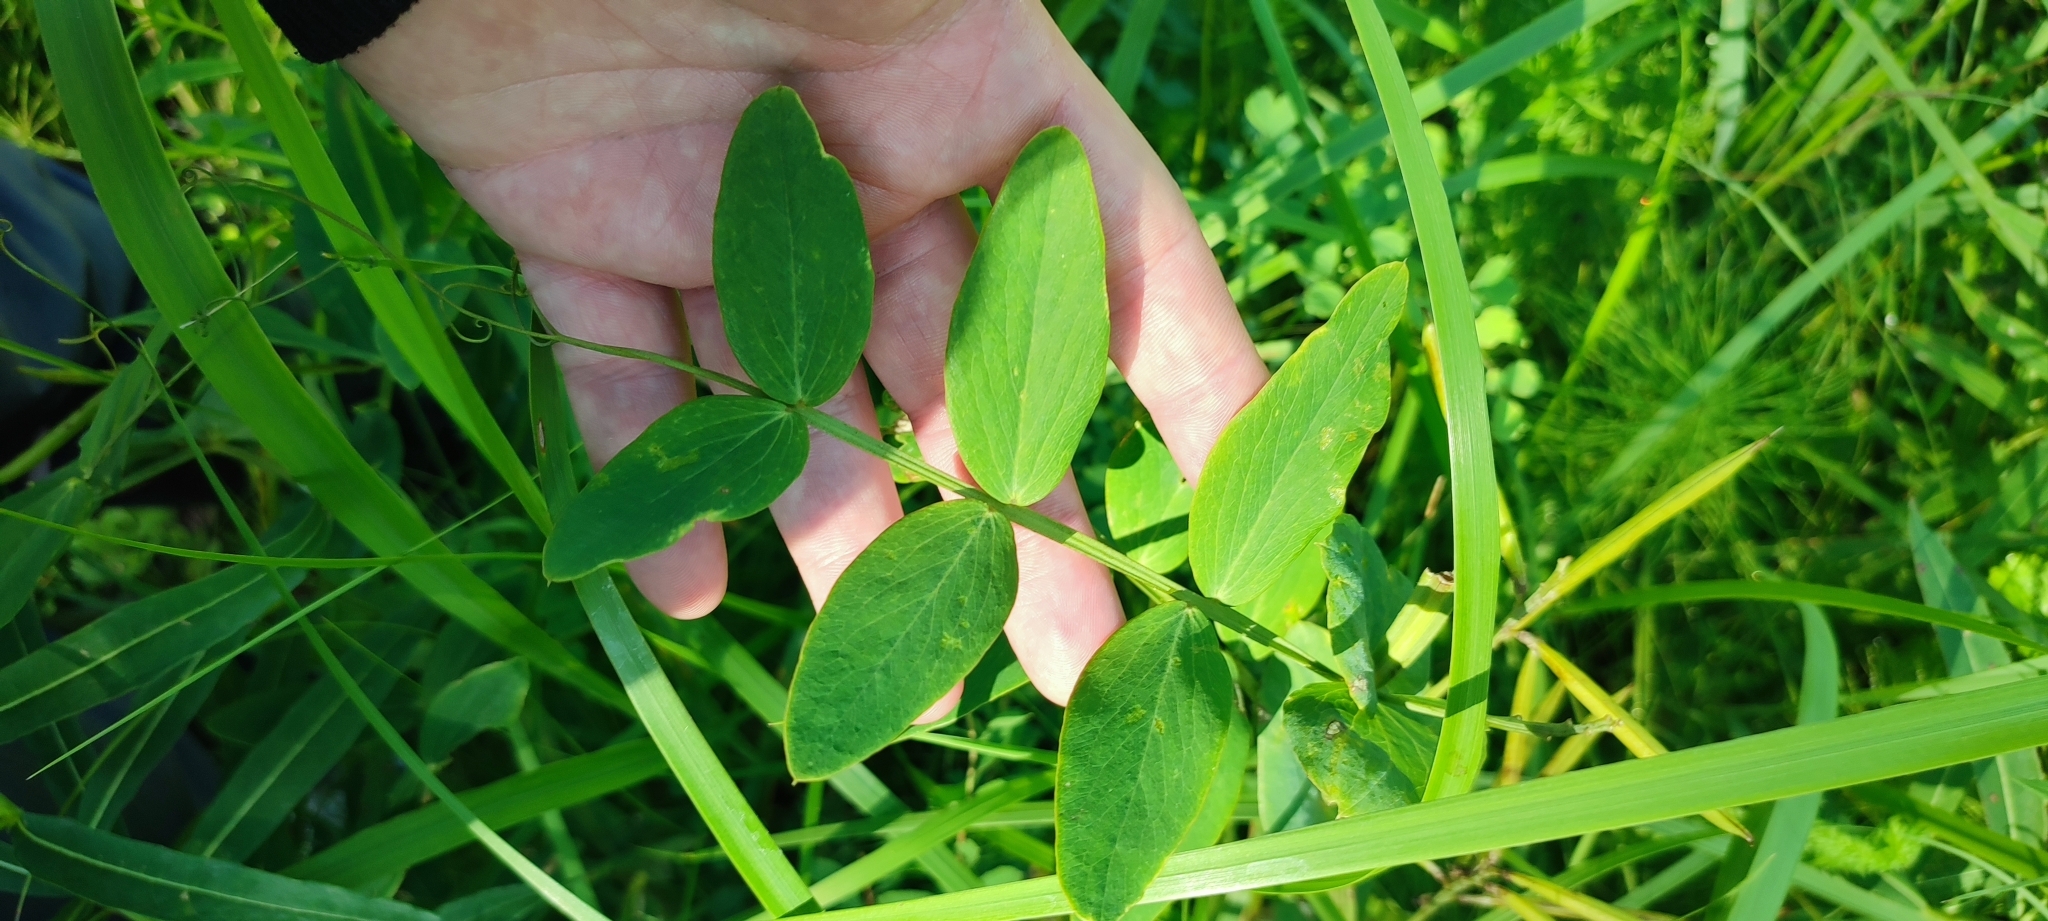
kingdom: Plantae
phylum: Tracheophyta
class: Magnoliopsida
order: Fabales
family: Fabaceae
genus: Lathyrus
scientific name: Lathyrus pisiformis
